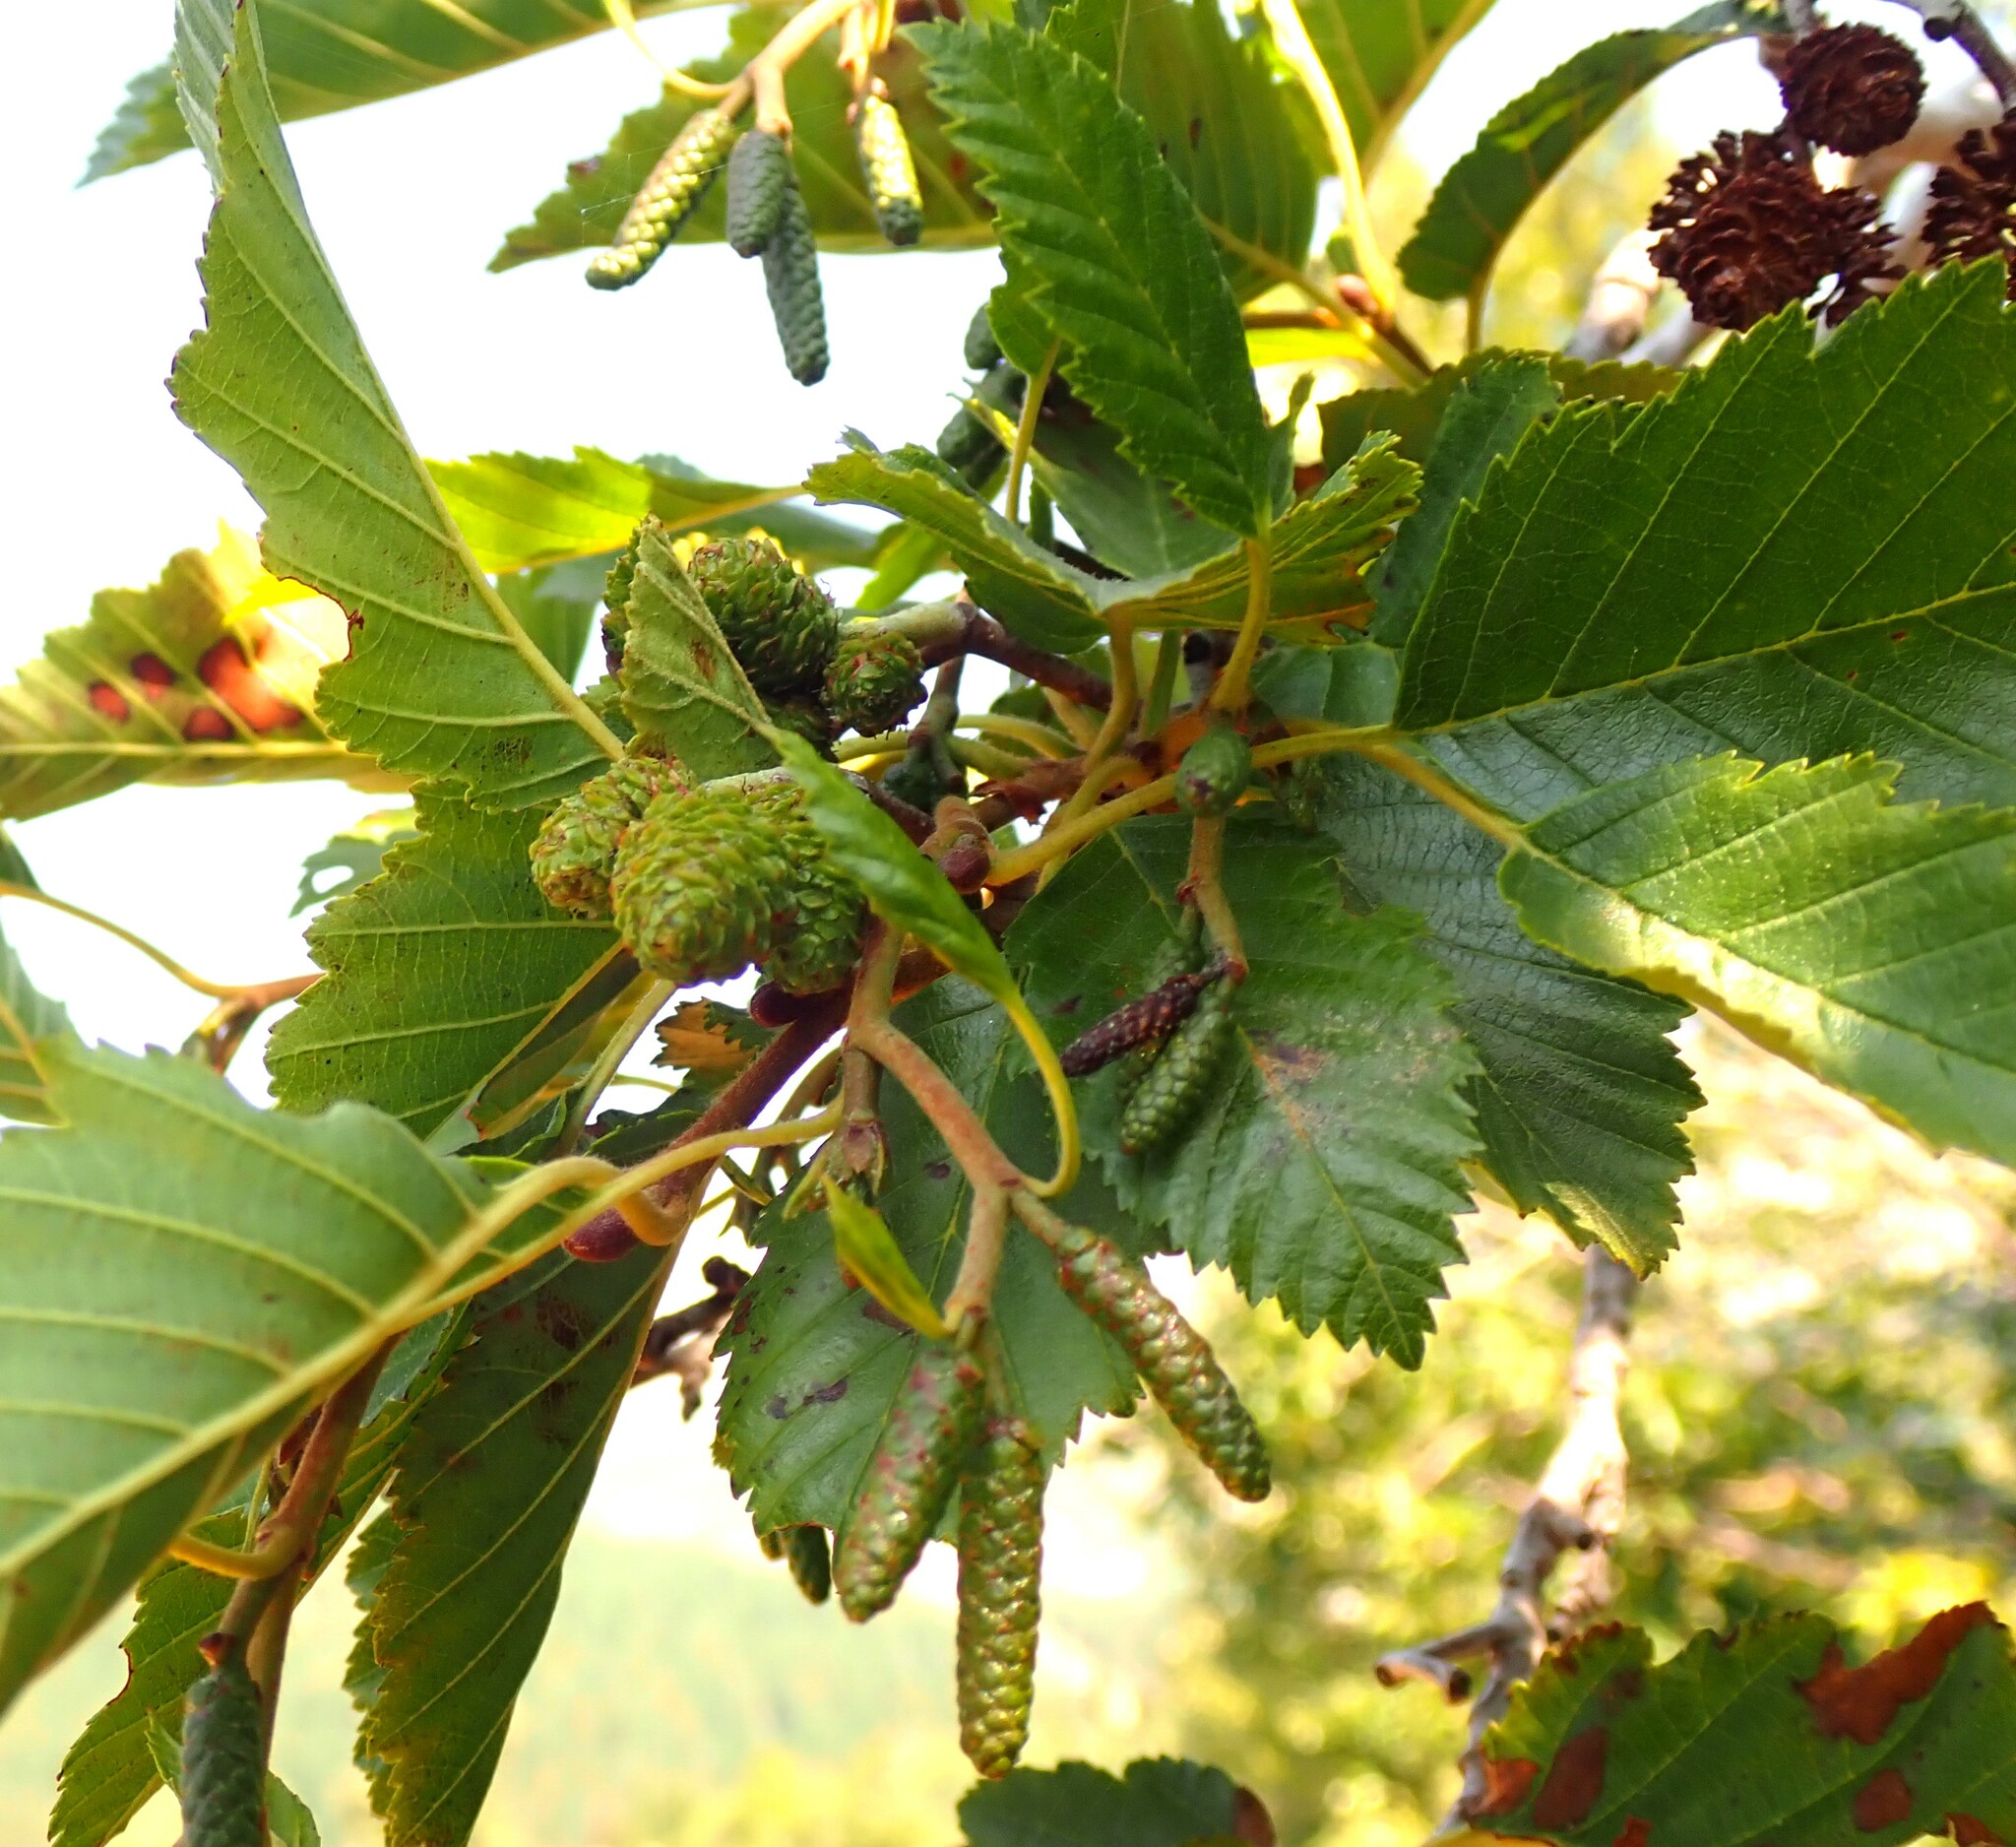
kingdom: Plantae
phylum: Tracheophyta
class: Magnoliopsida
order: Fagales
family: Betulaceae
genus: Alnus
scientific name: Alnus alnobetula
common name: Green alder
